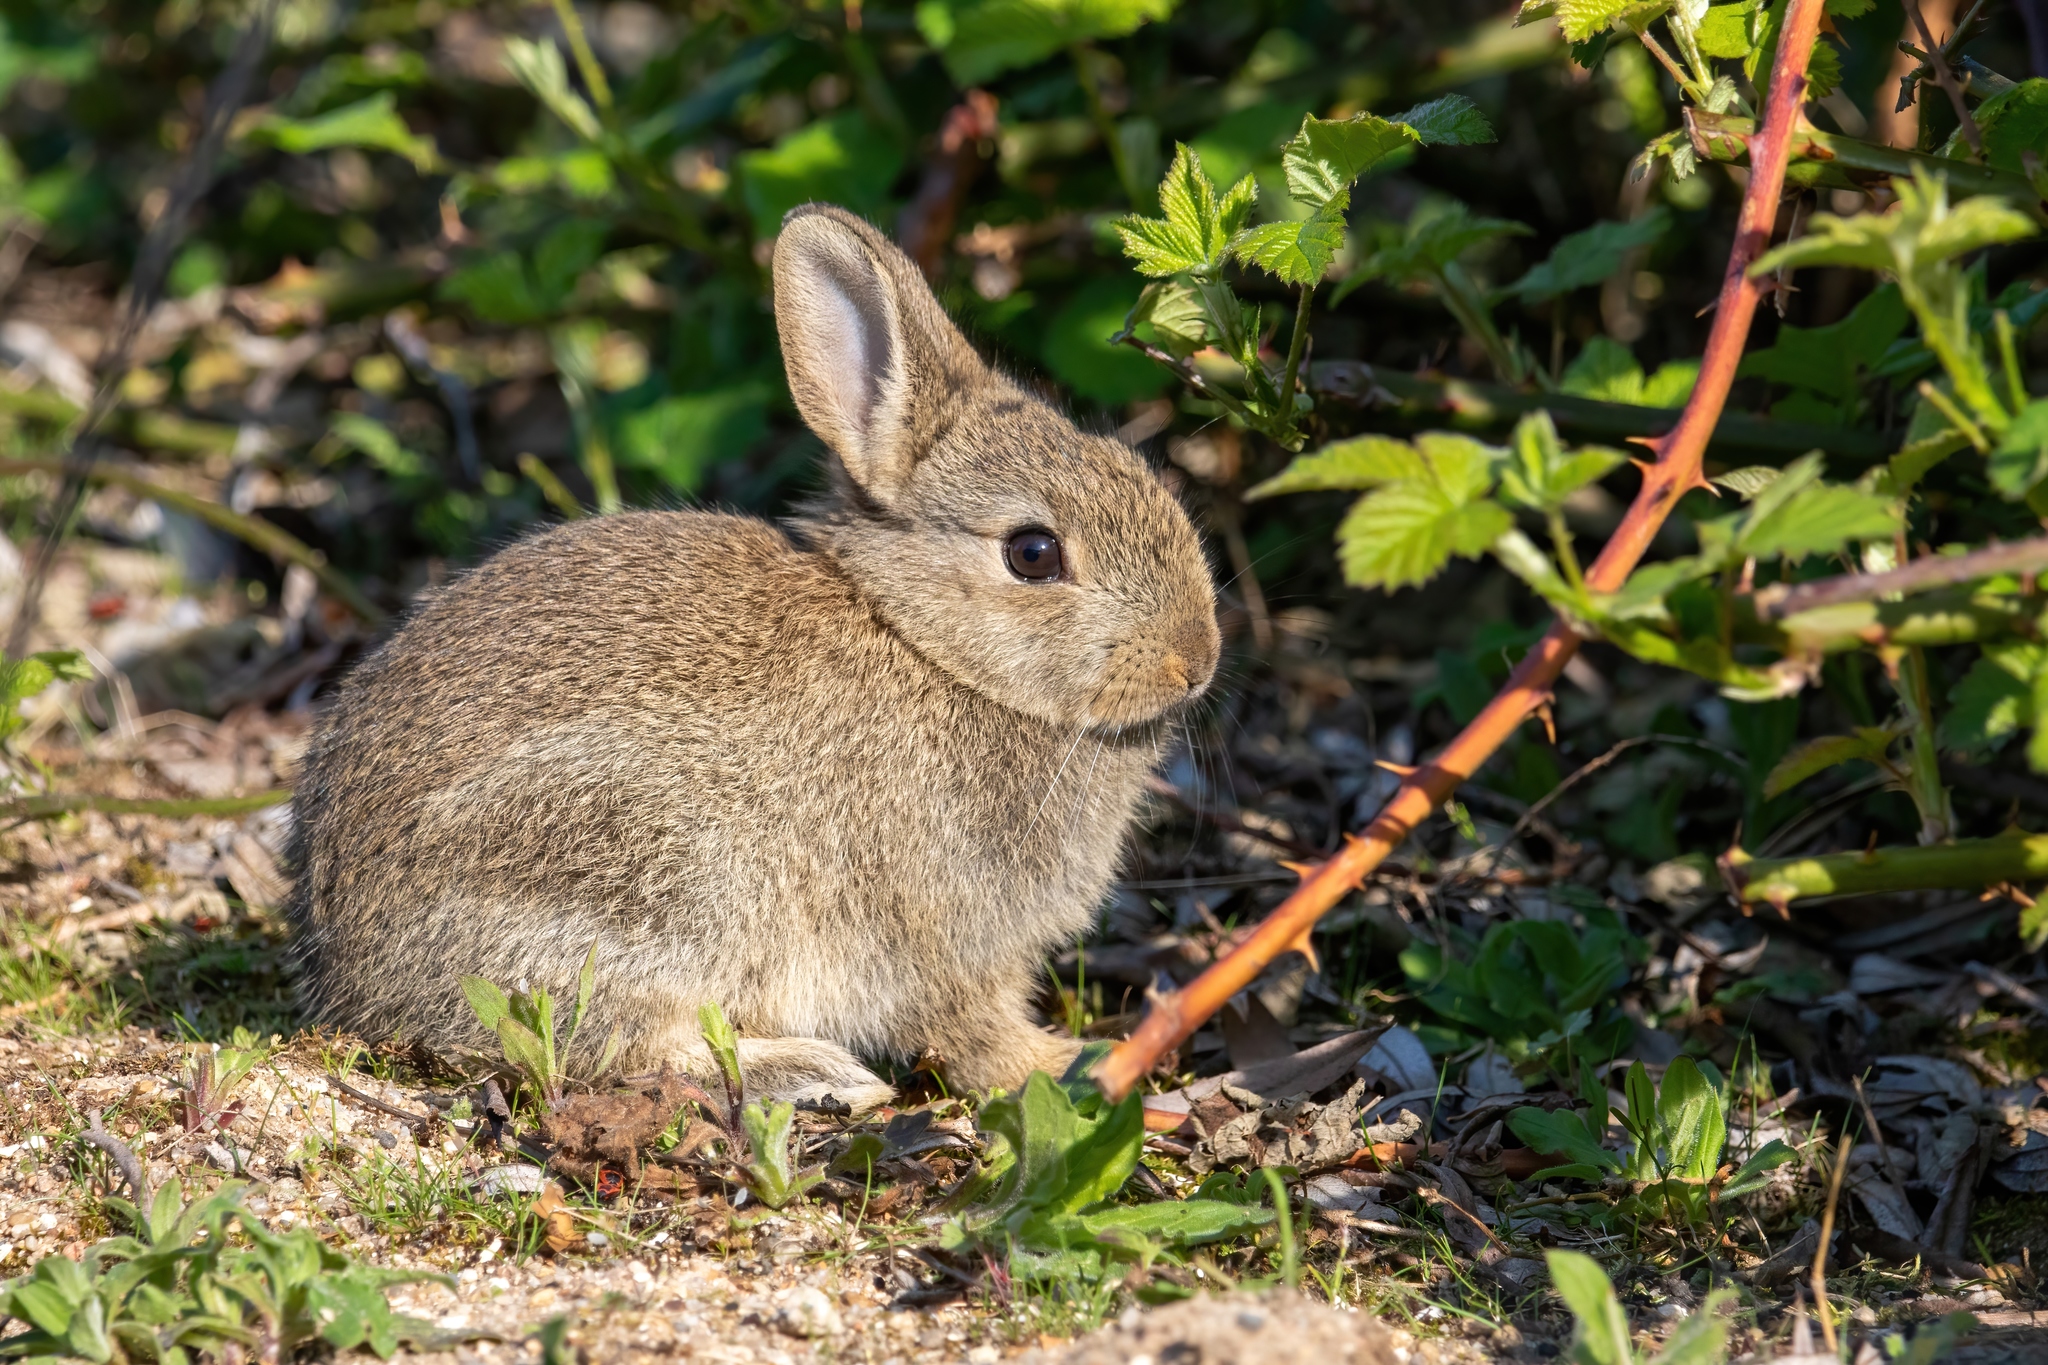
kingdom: Animalia
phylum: Chordata
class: Mammalia
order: Lagomorpha
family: Leporidae
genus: Oryctolagus
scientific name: Oryctolagus cuniculus
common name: European rabbit
